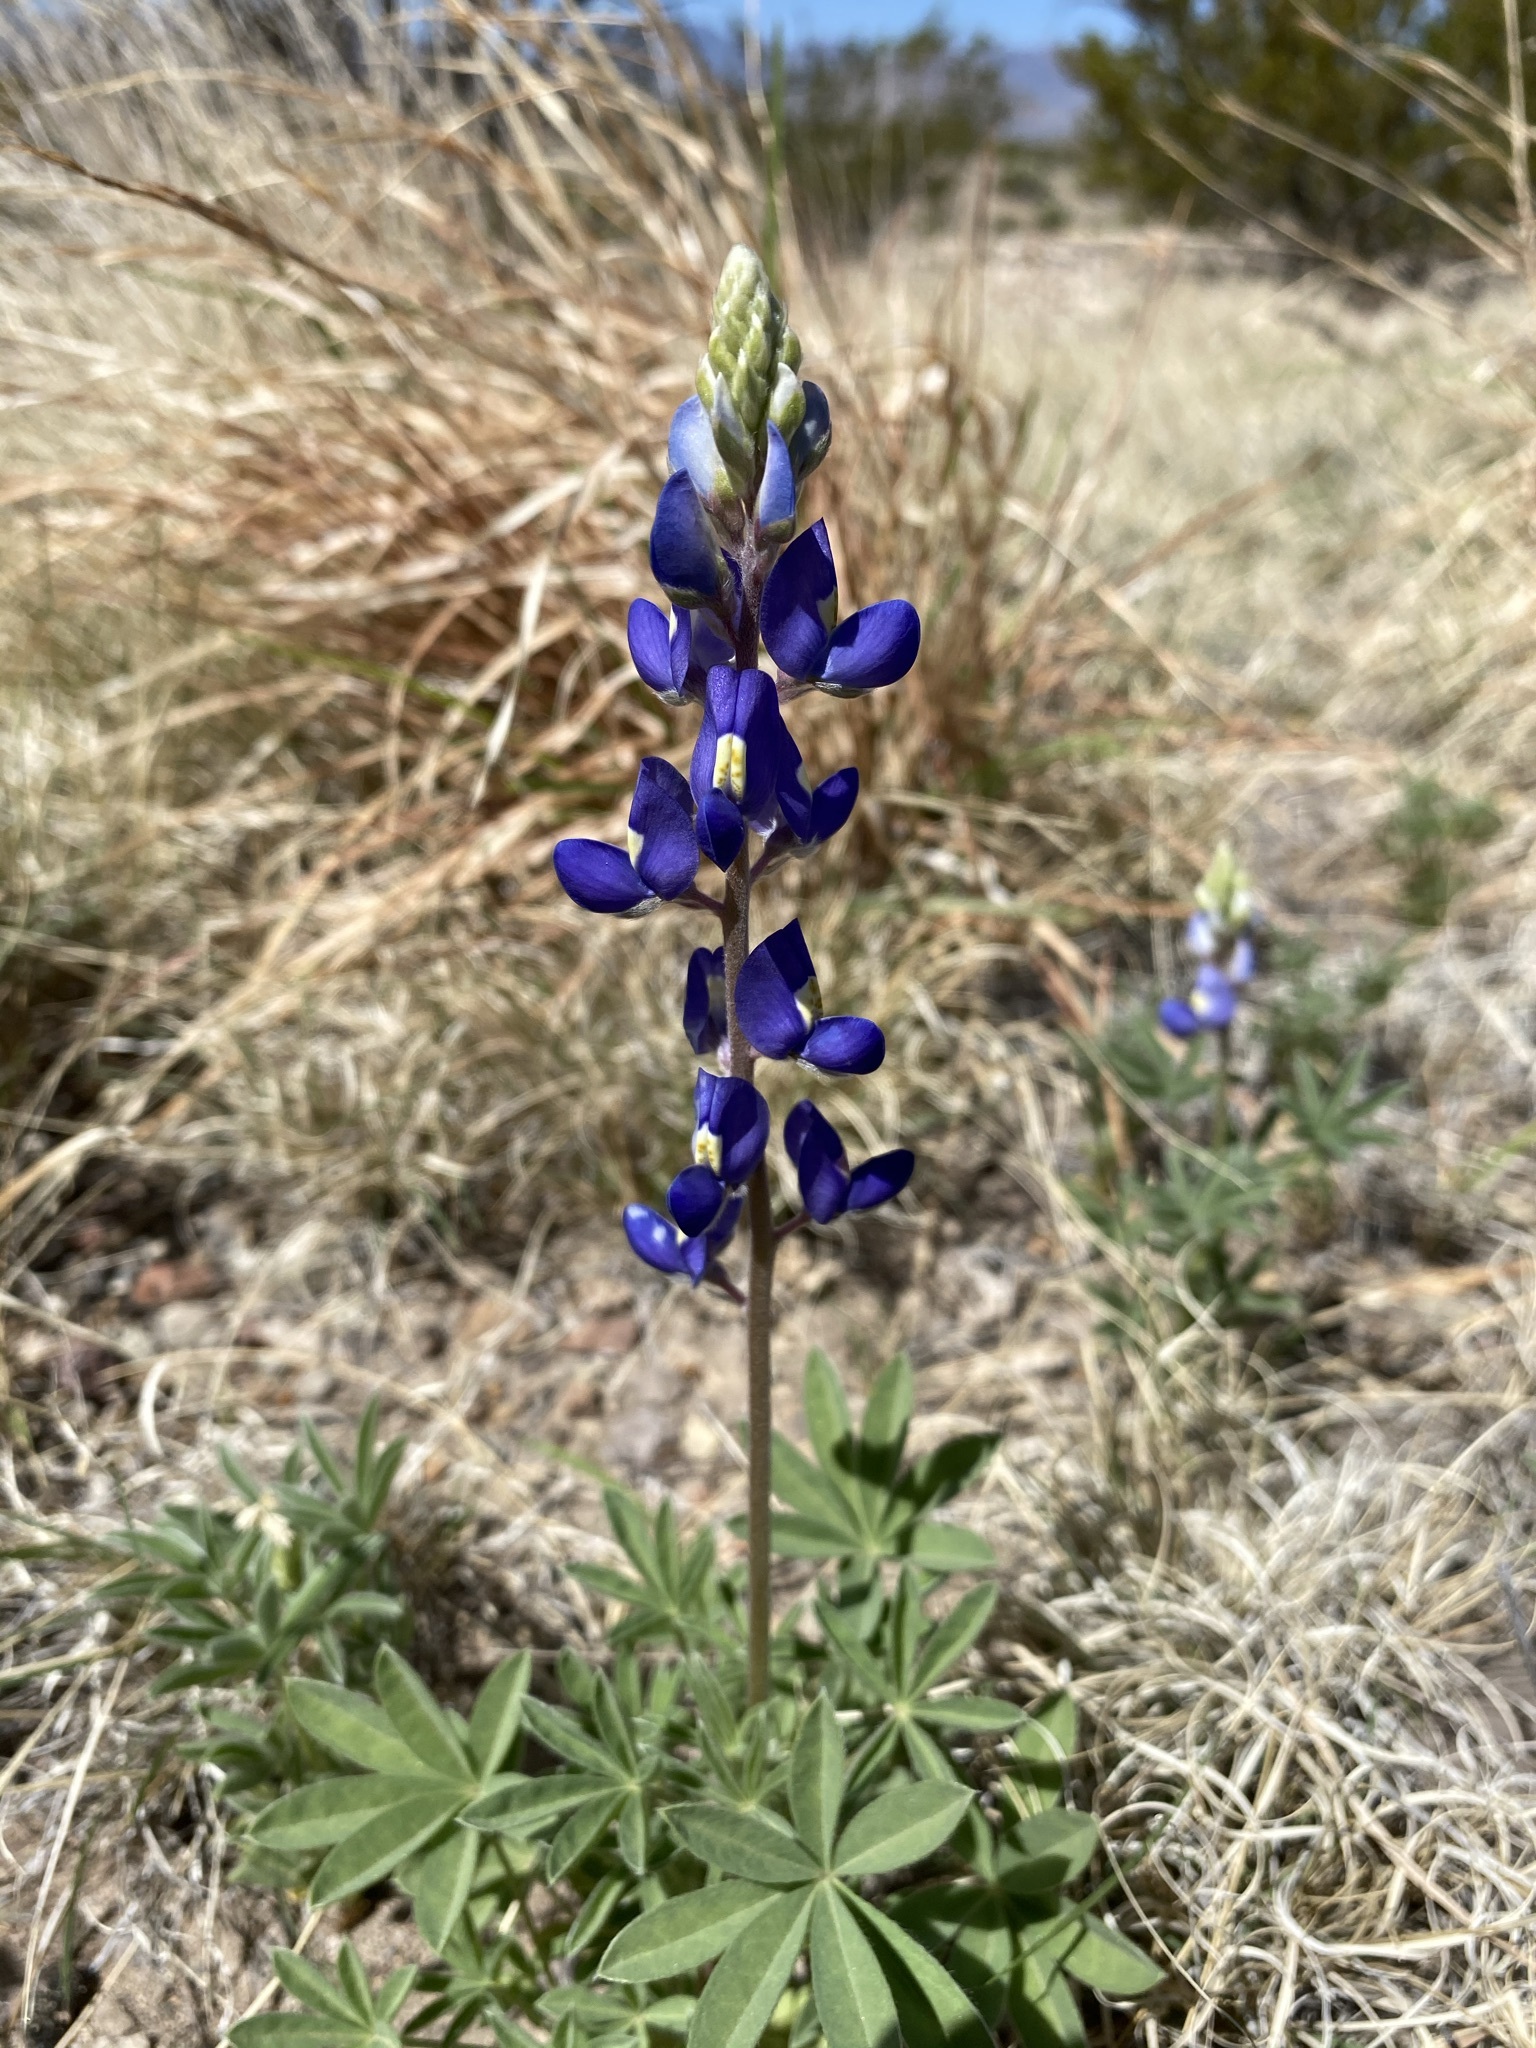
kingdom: Plantae
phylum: Tracheophyta
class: Magnoliopsida
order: Fabales
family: Fabaceae
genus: Lupinus
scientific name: Lupinus havardii
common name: Chisos bluebonnet
